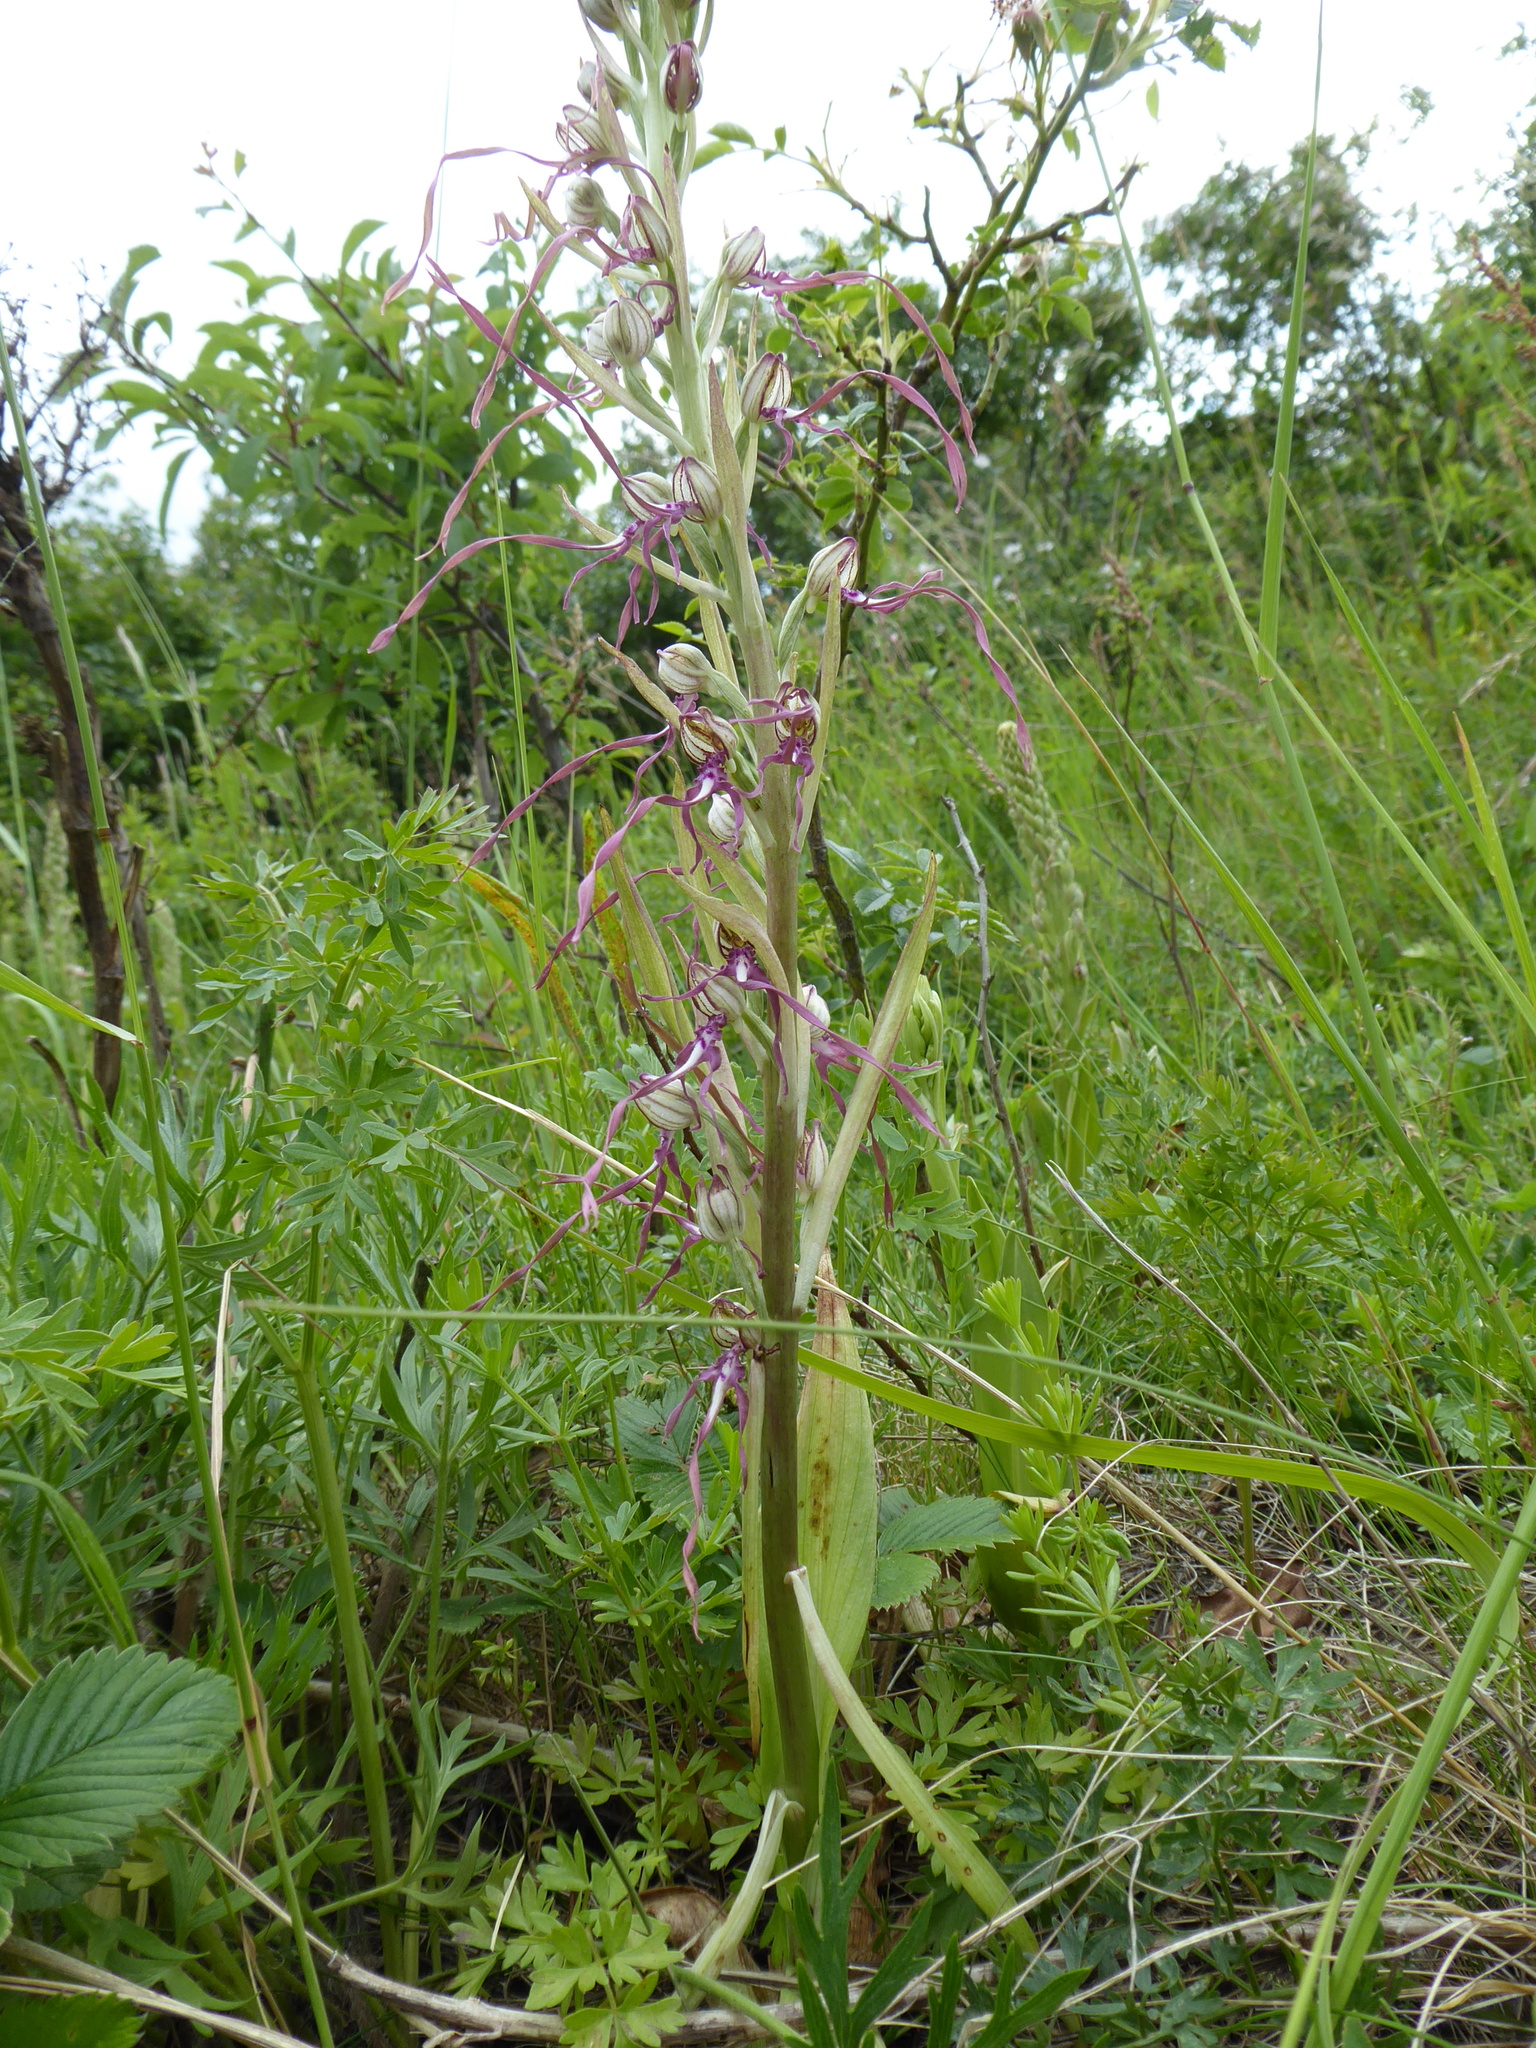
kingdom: Plantae
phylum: Tracheophyta
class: Liliopsida
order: Asparagales
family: Orchidaceae
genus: Himantoglossum
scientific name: Himantoglossum adriaticum
